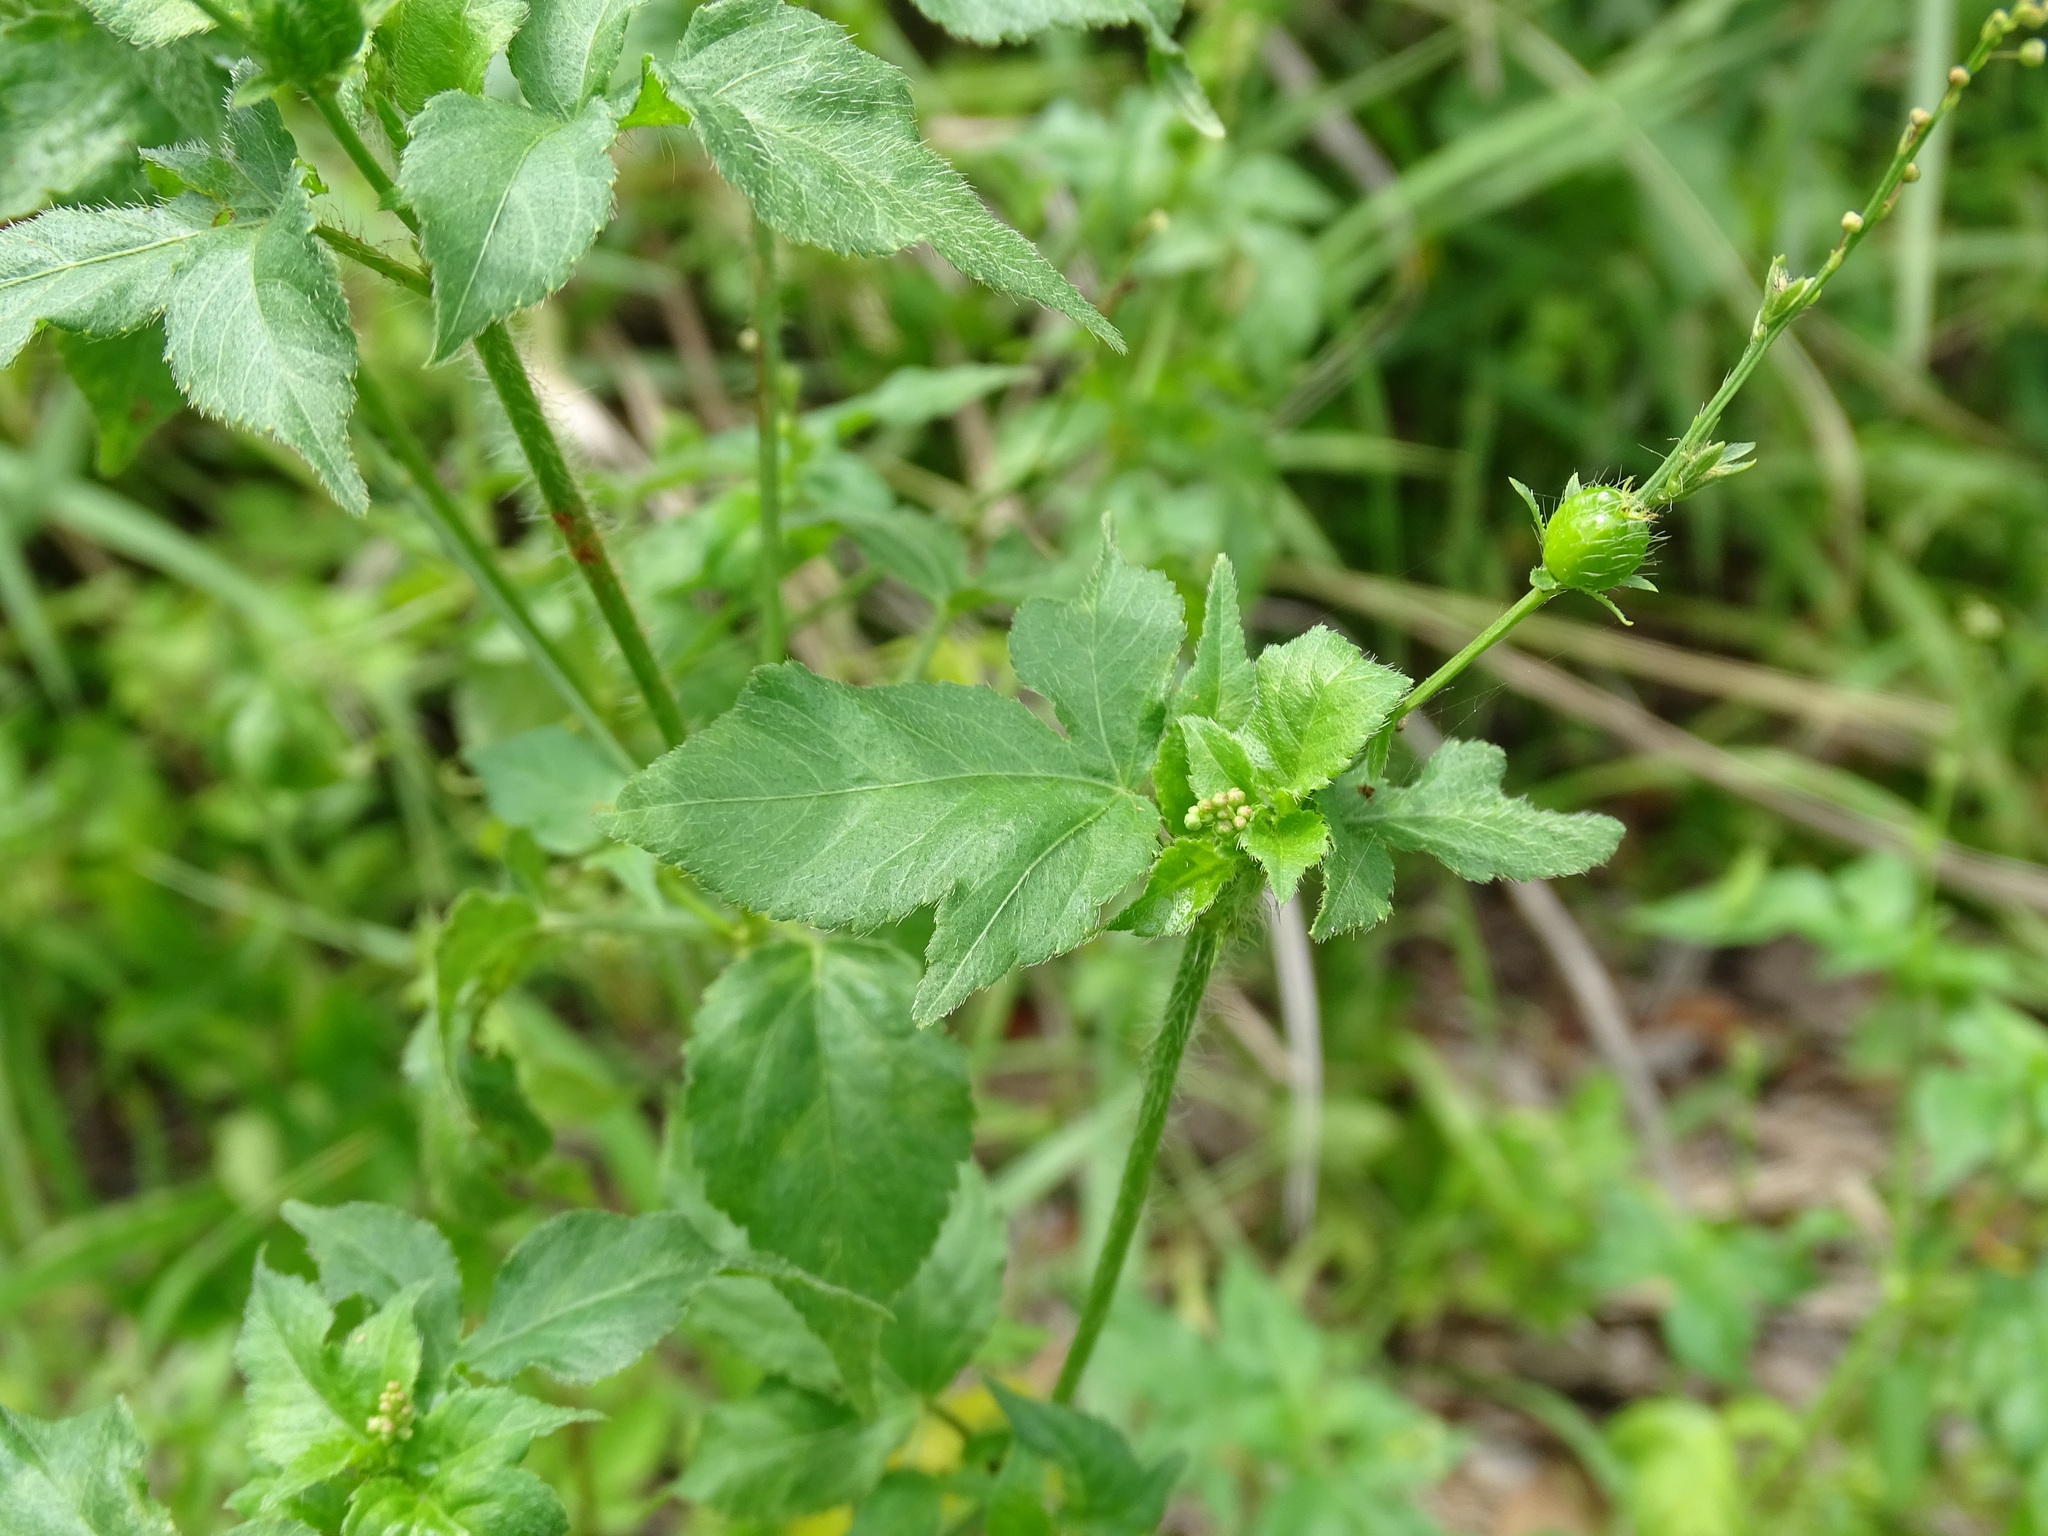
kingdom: Plantae
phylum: Tracheophyta
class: Magnoliopsida
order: Malpighiales
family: Euphorbiaceae
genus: Astraea
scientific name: Astraea lobata
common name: Lobed croton
